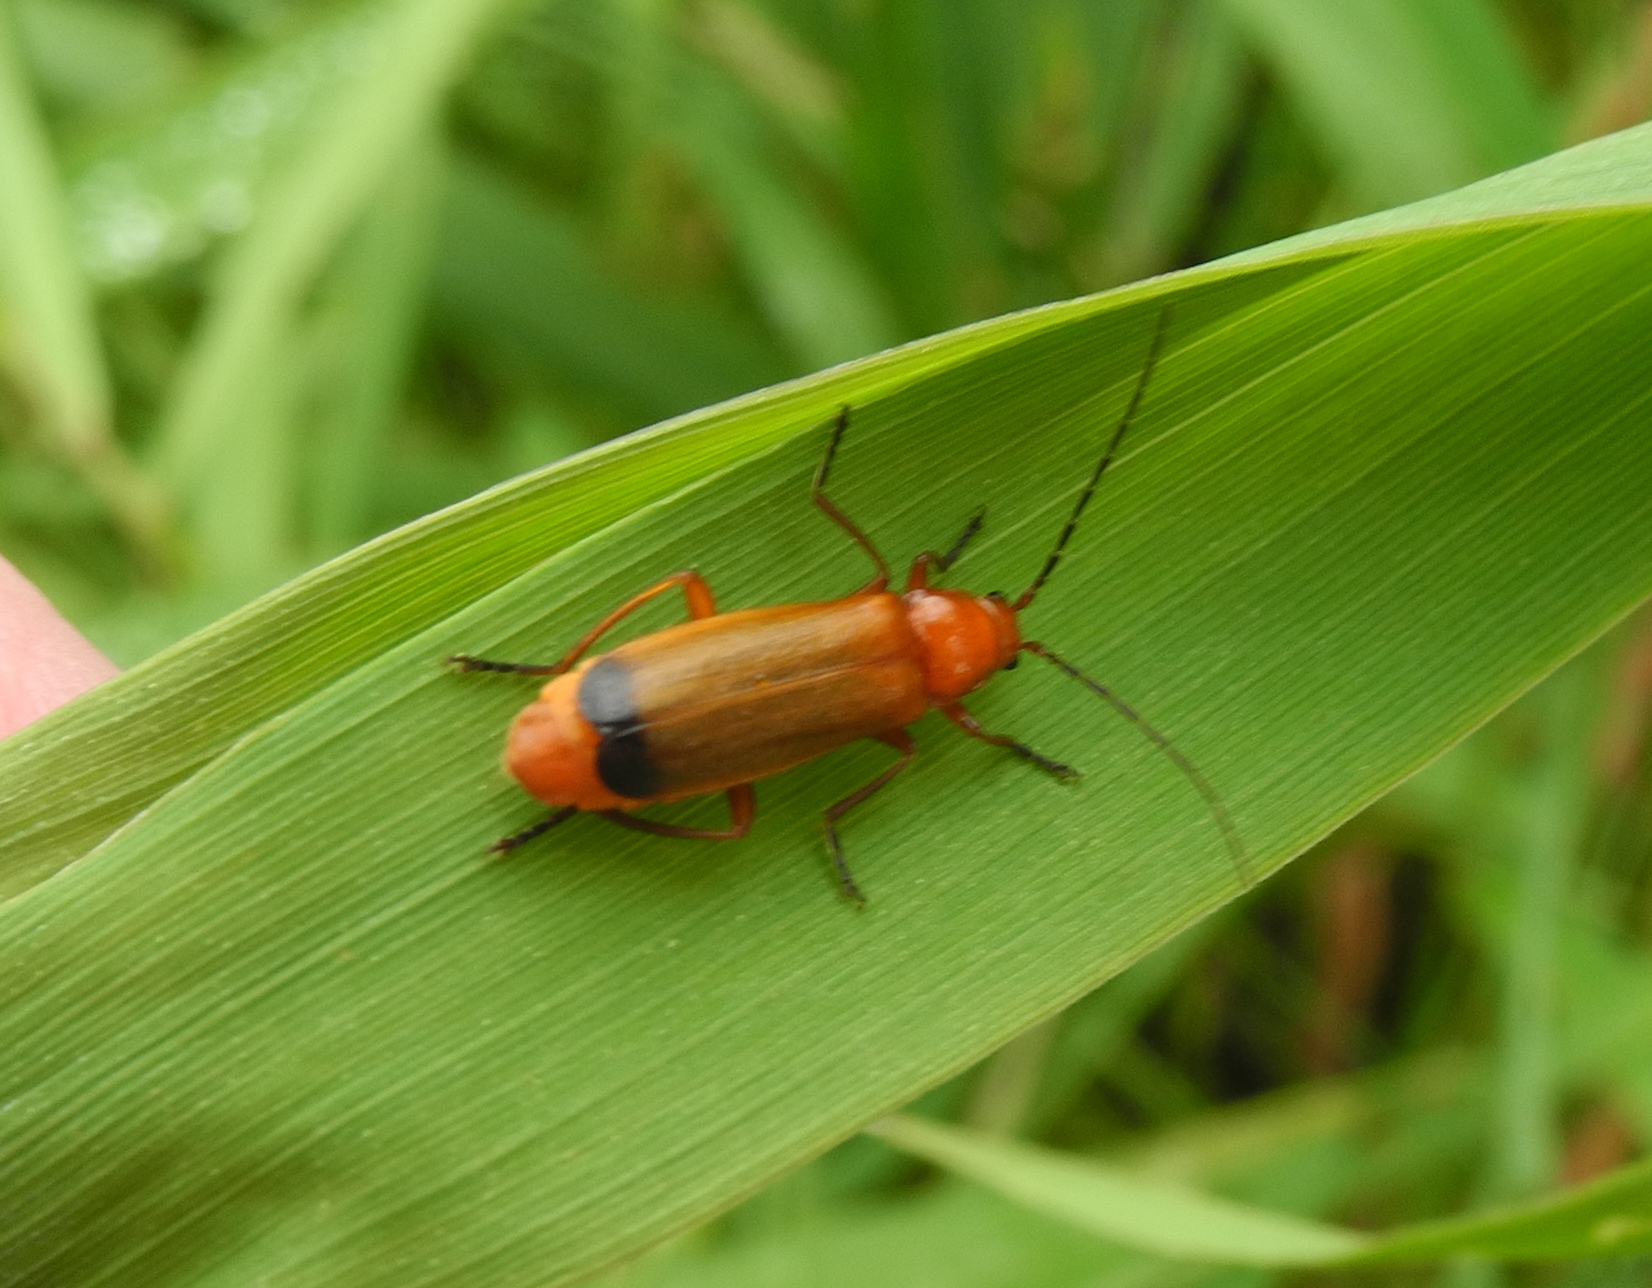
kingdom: Animalia
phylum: Arthropoda
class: Insecta
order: Coleoptera
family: Cantharidae
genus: Rhagonycha
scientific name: Rhagonycha fulva
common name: Common red soldier beetle
